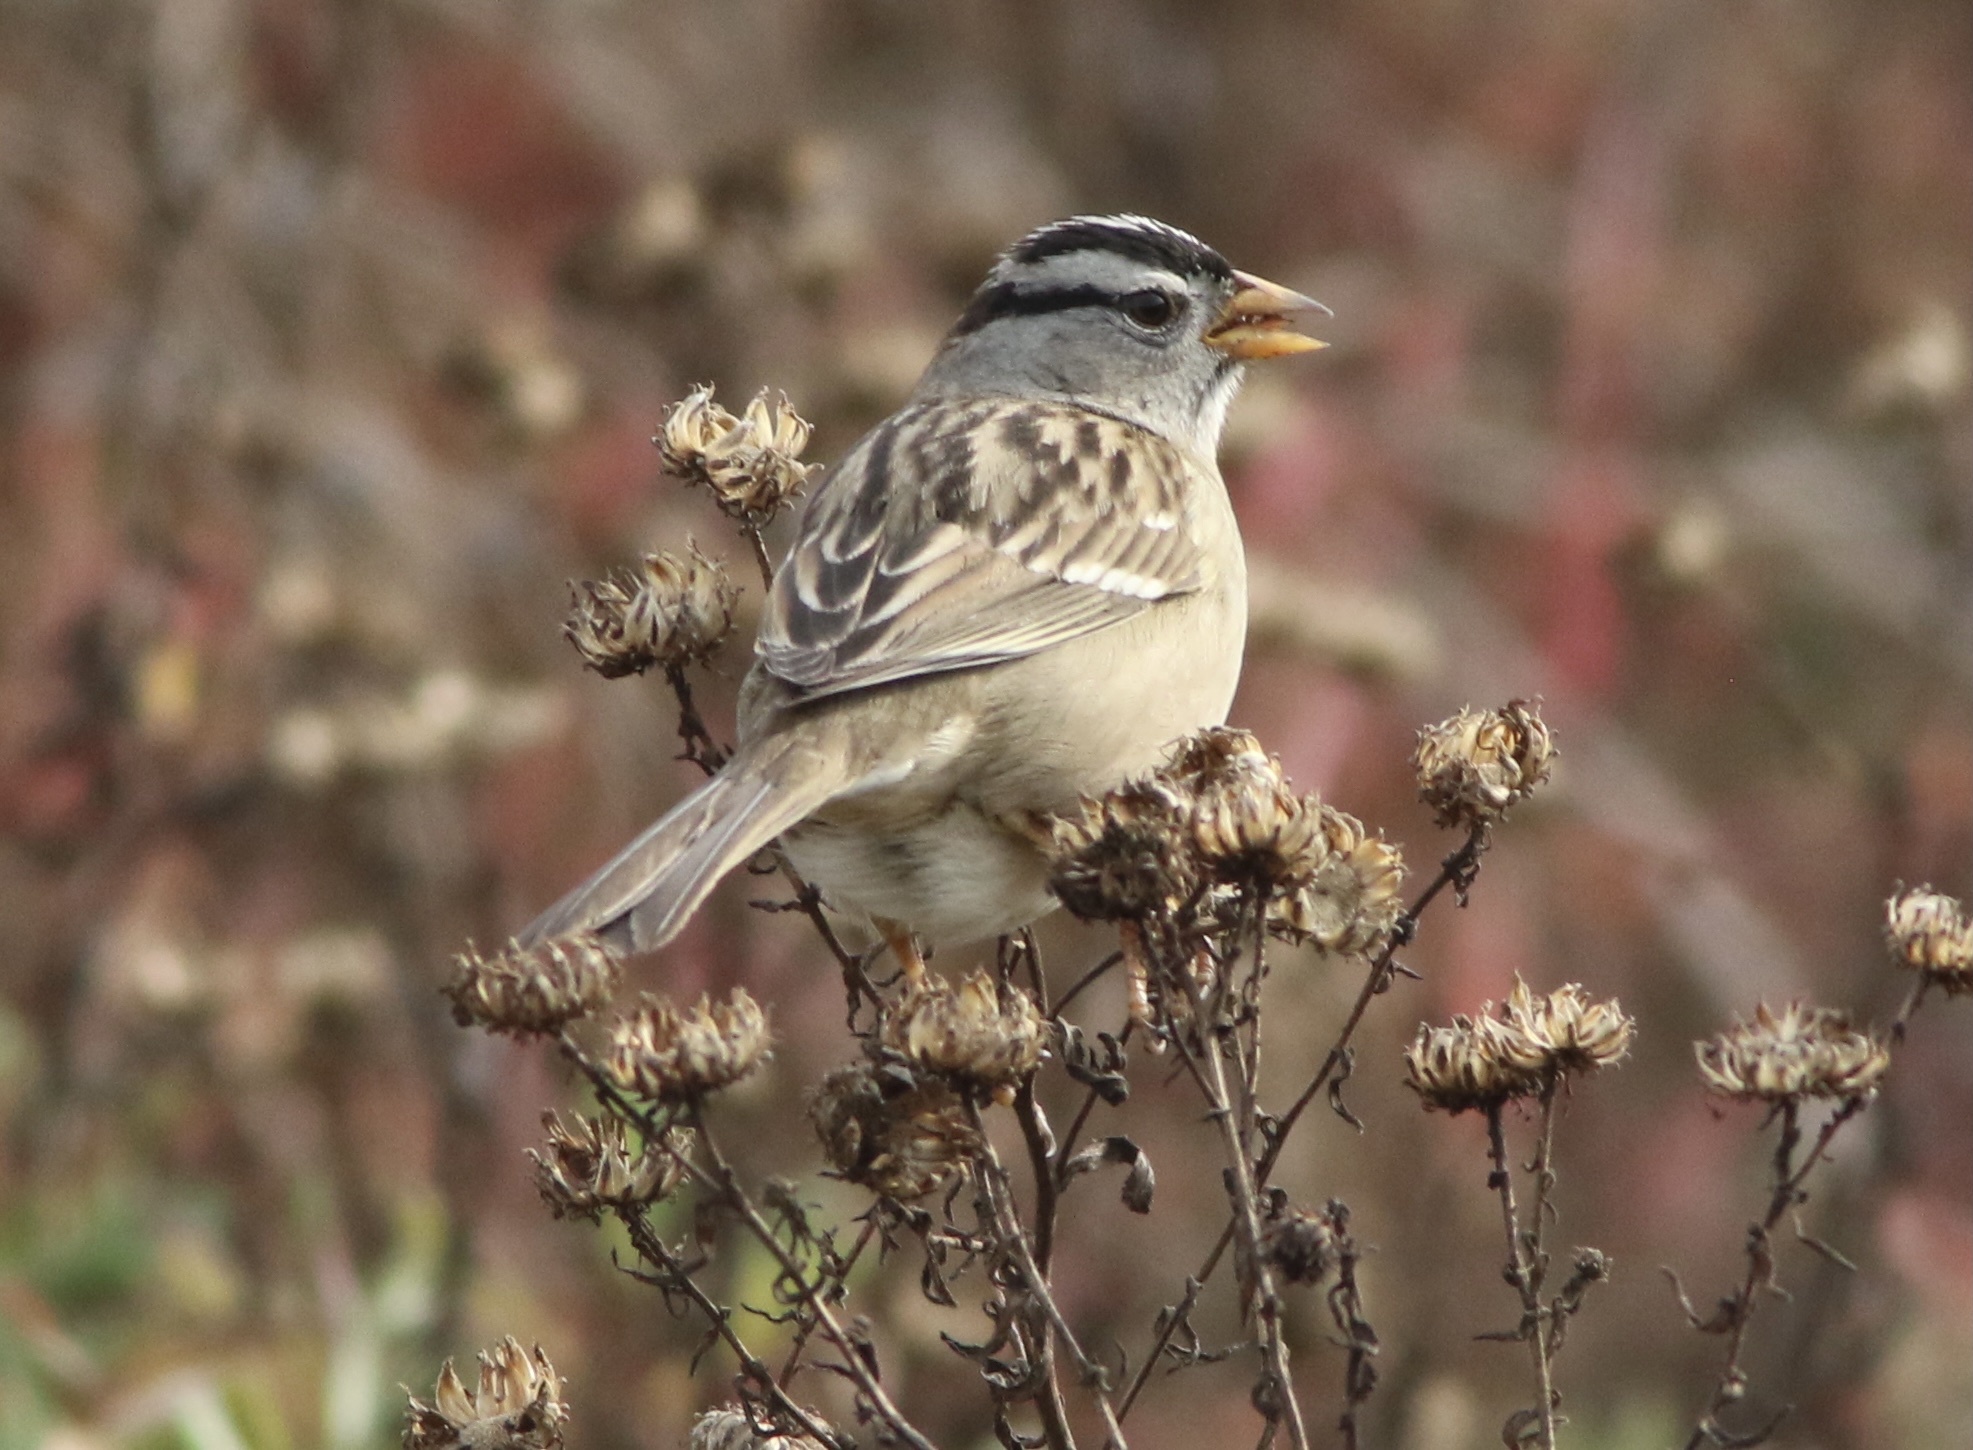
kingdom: Animalia
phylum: Chordata
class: Aves
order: Passeriformes
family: Passerellidae
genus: Zonotrichia
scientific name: Zonotrichia leucophrys
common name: White-crowned sparrow
